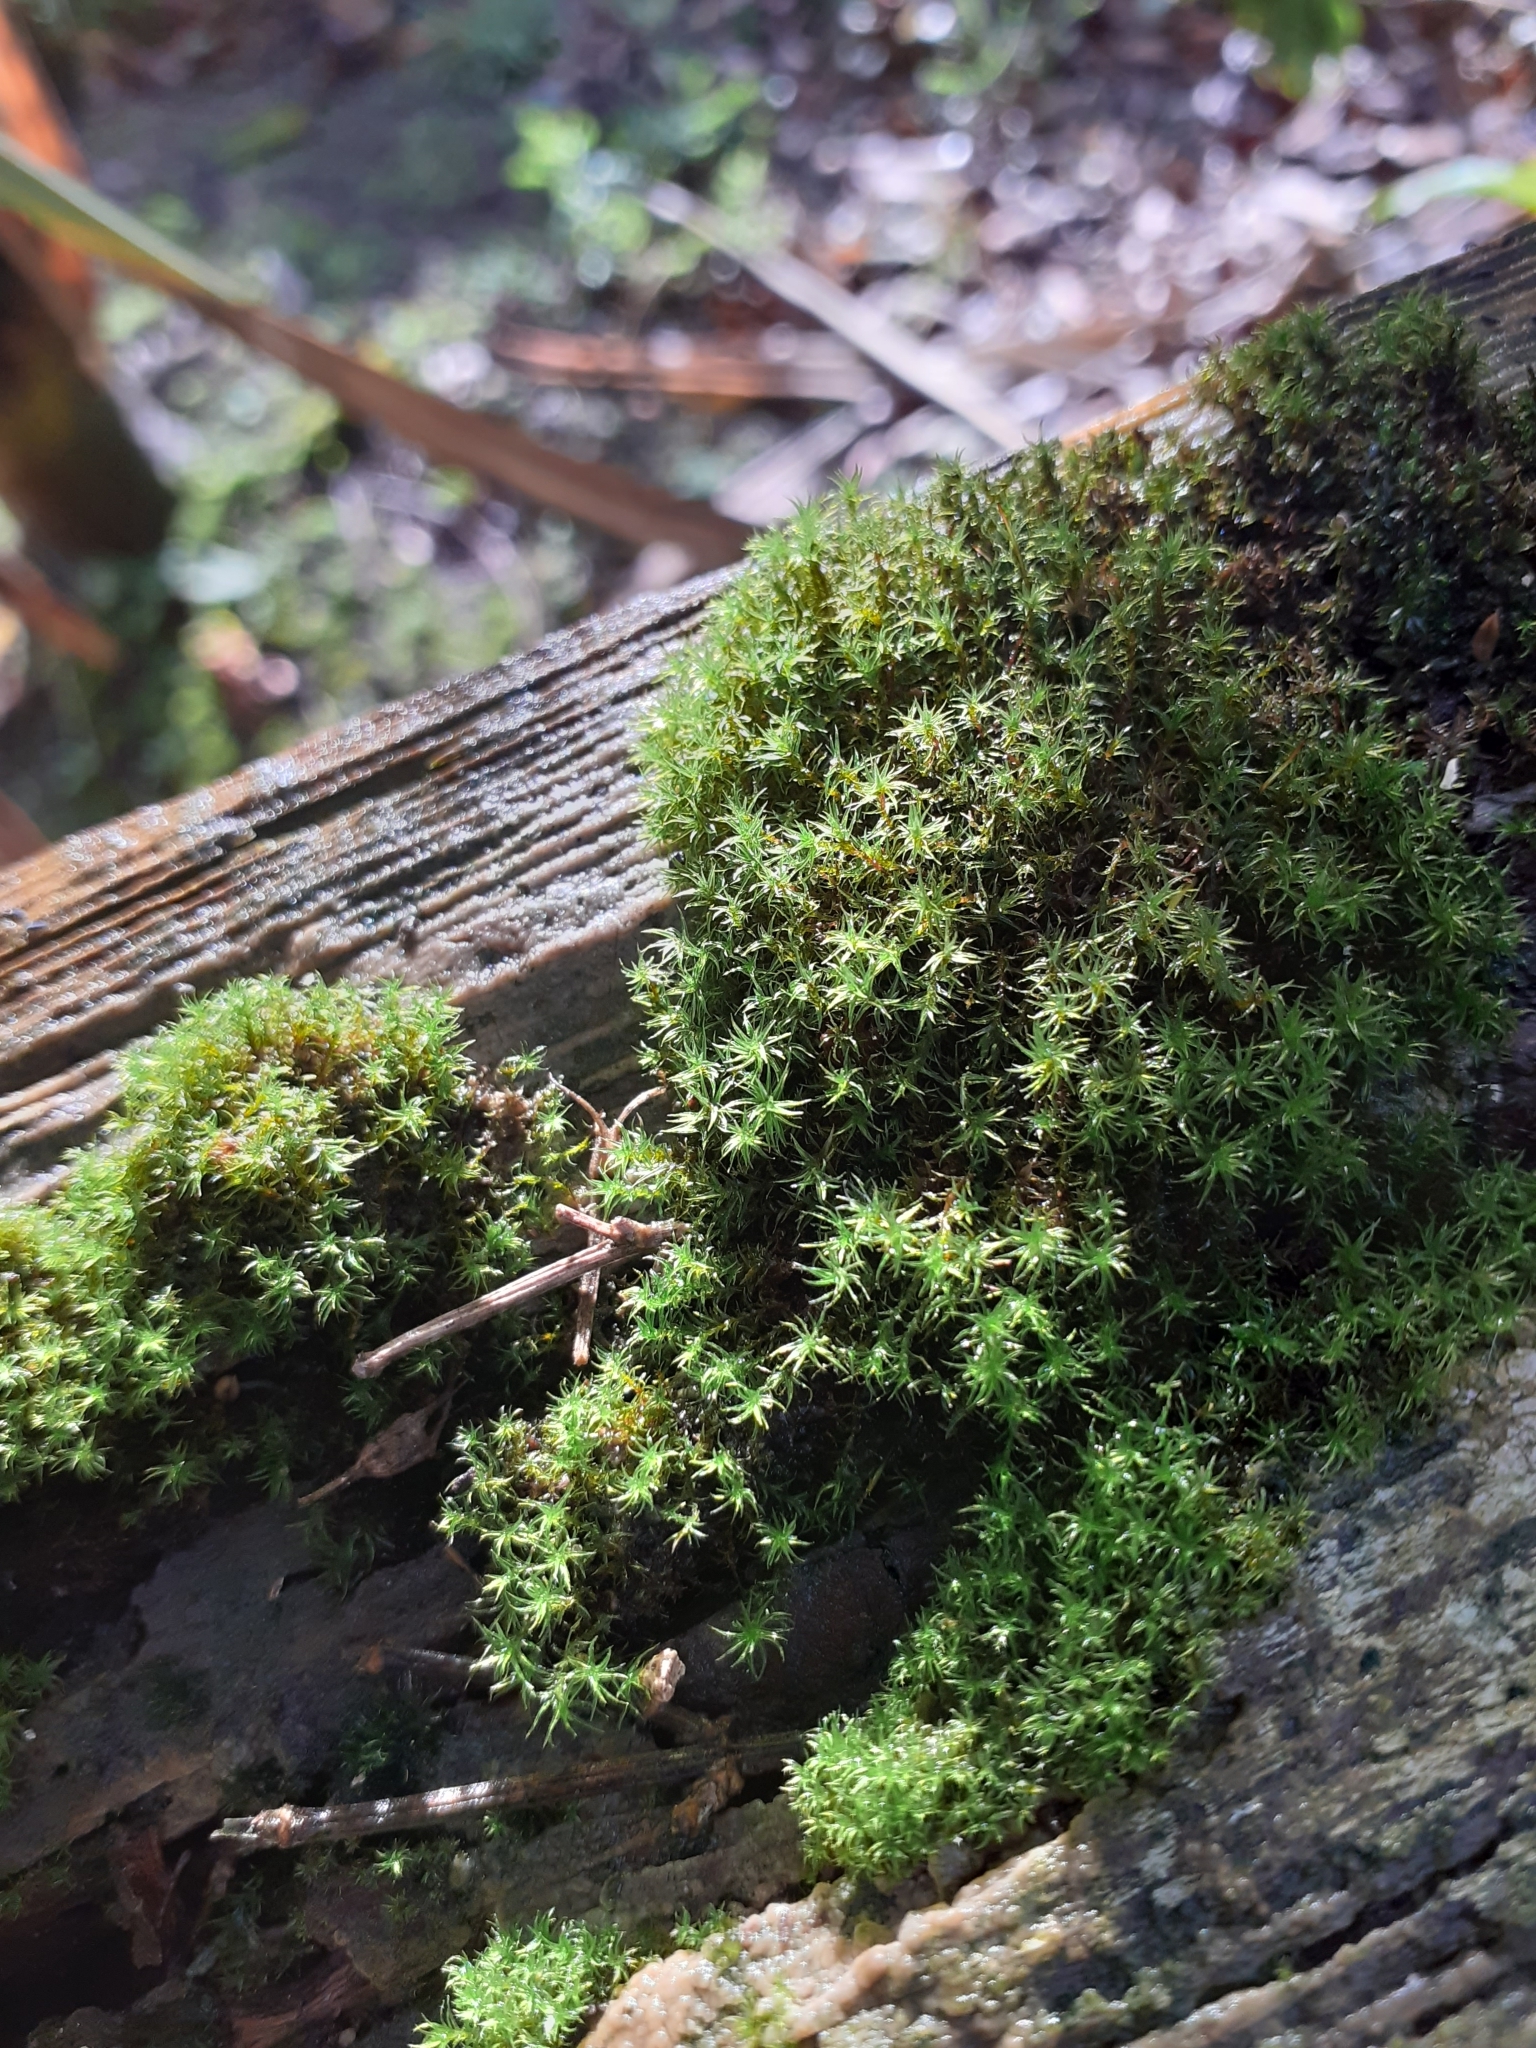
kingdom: Plantae
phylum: Bryophyta
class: Bryopsida
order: Pottiales
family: Pottiaceae
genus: Vinealobryum
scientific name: Vinealobryum insulanum
